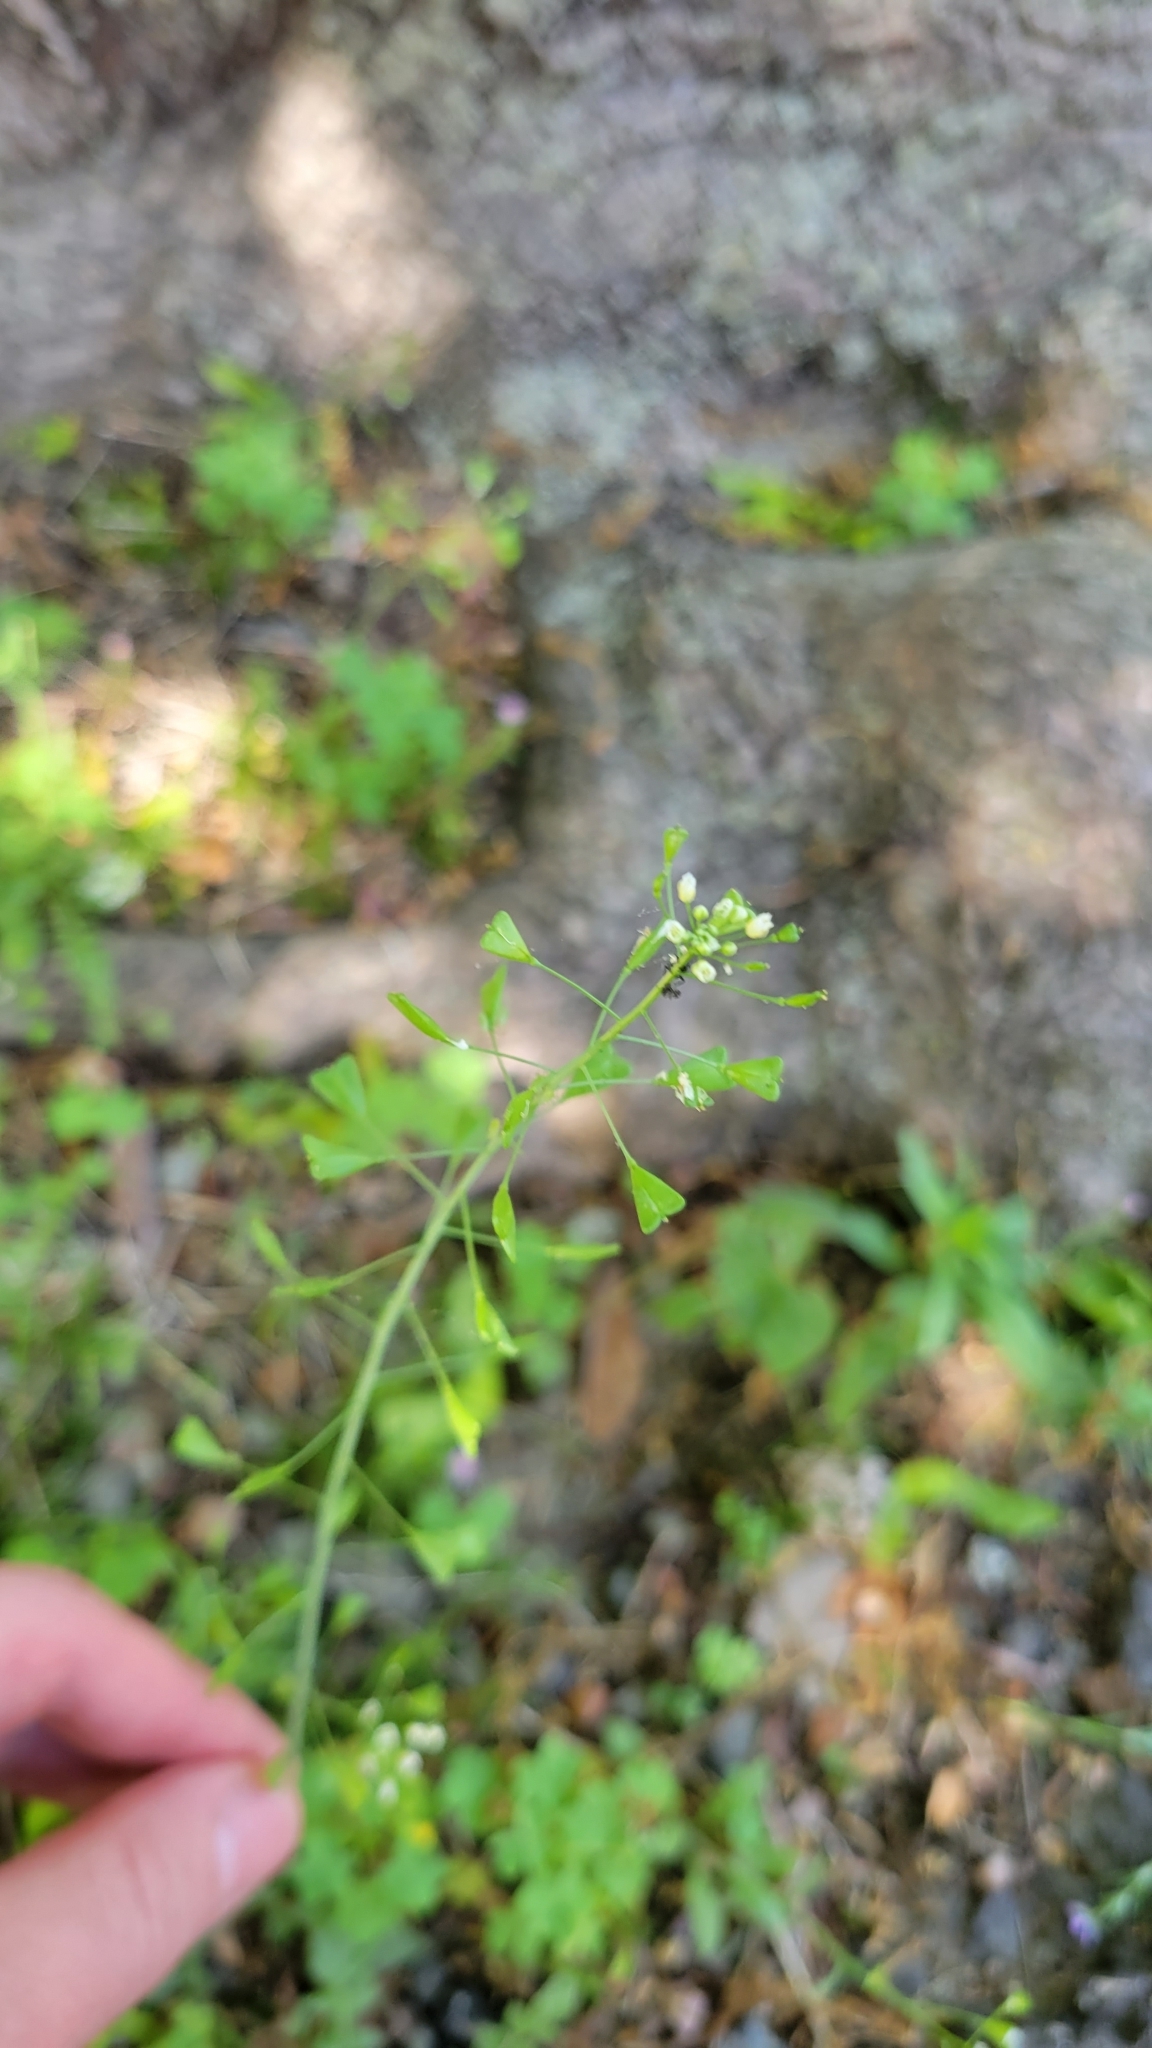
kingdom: Plantae
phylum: Tracheophyta
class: Magnoliopsida
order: Brassicales
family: Brassicaceae
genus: Capsella
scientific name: Capsella bursa-pastoris
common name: Shepherd's purse
